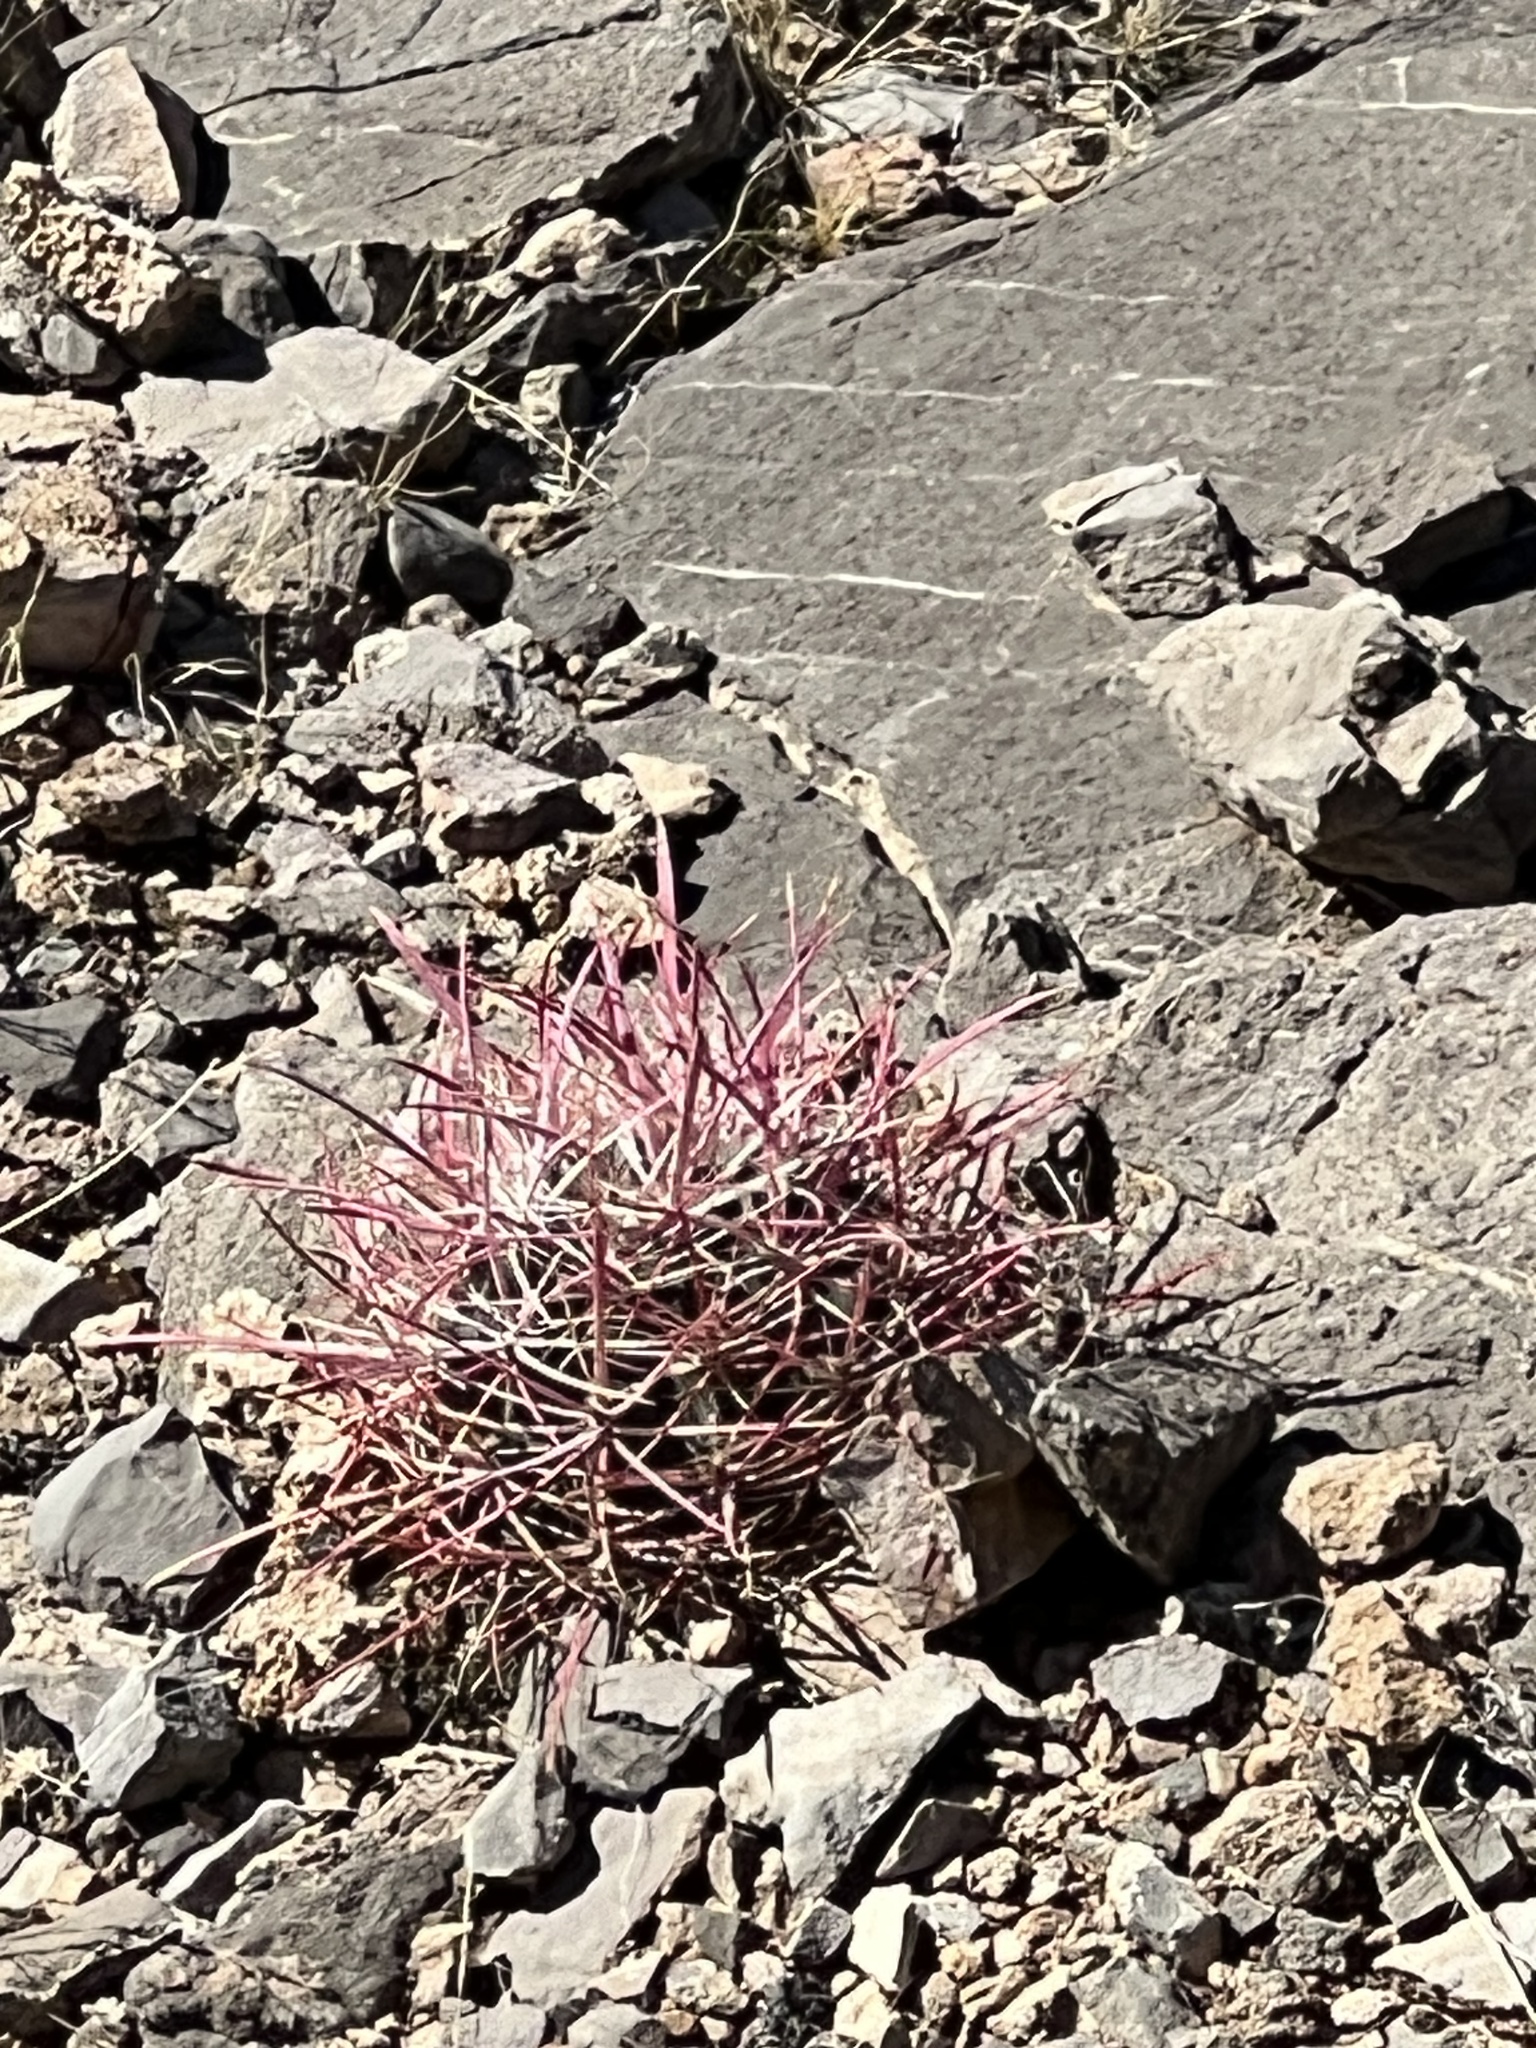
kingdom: Plantae
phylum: Tracheophyta
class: Magnoliopsida
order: Caryophyllales
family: Cactaceae
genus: Ferocactus
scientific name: Ferocactus cylindraceus
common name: California barrel cactus
